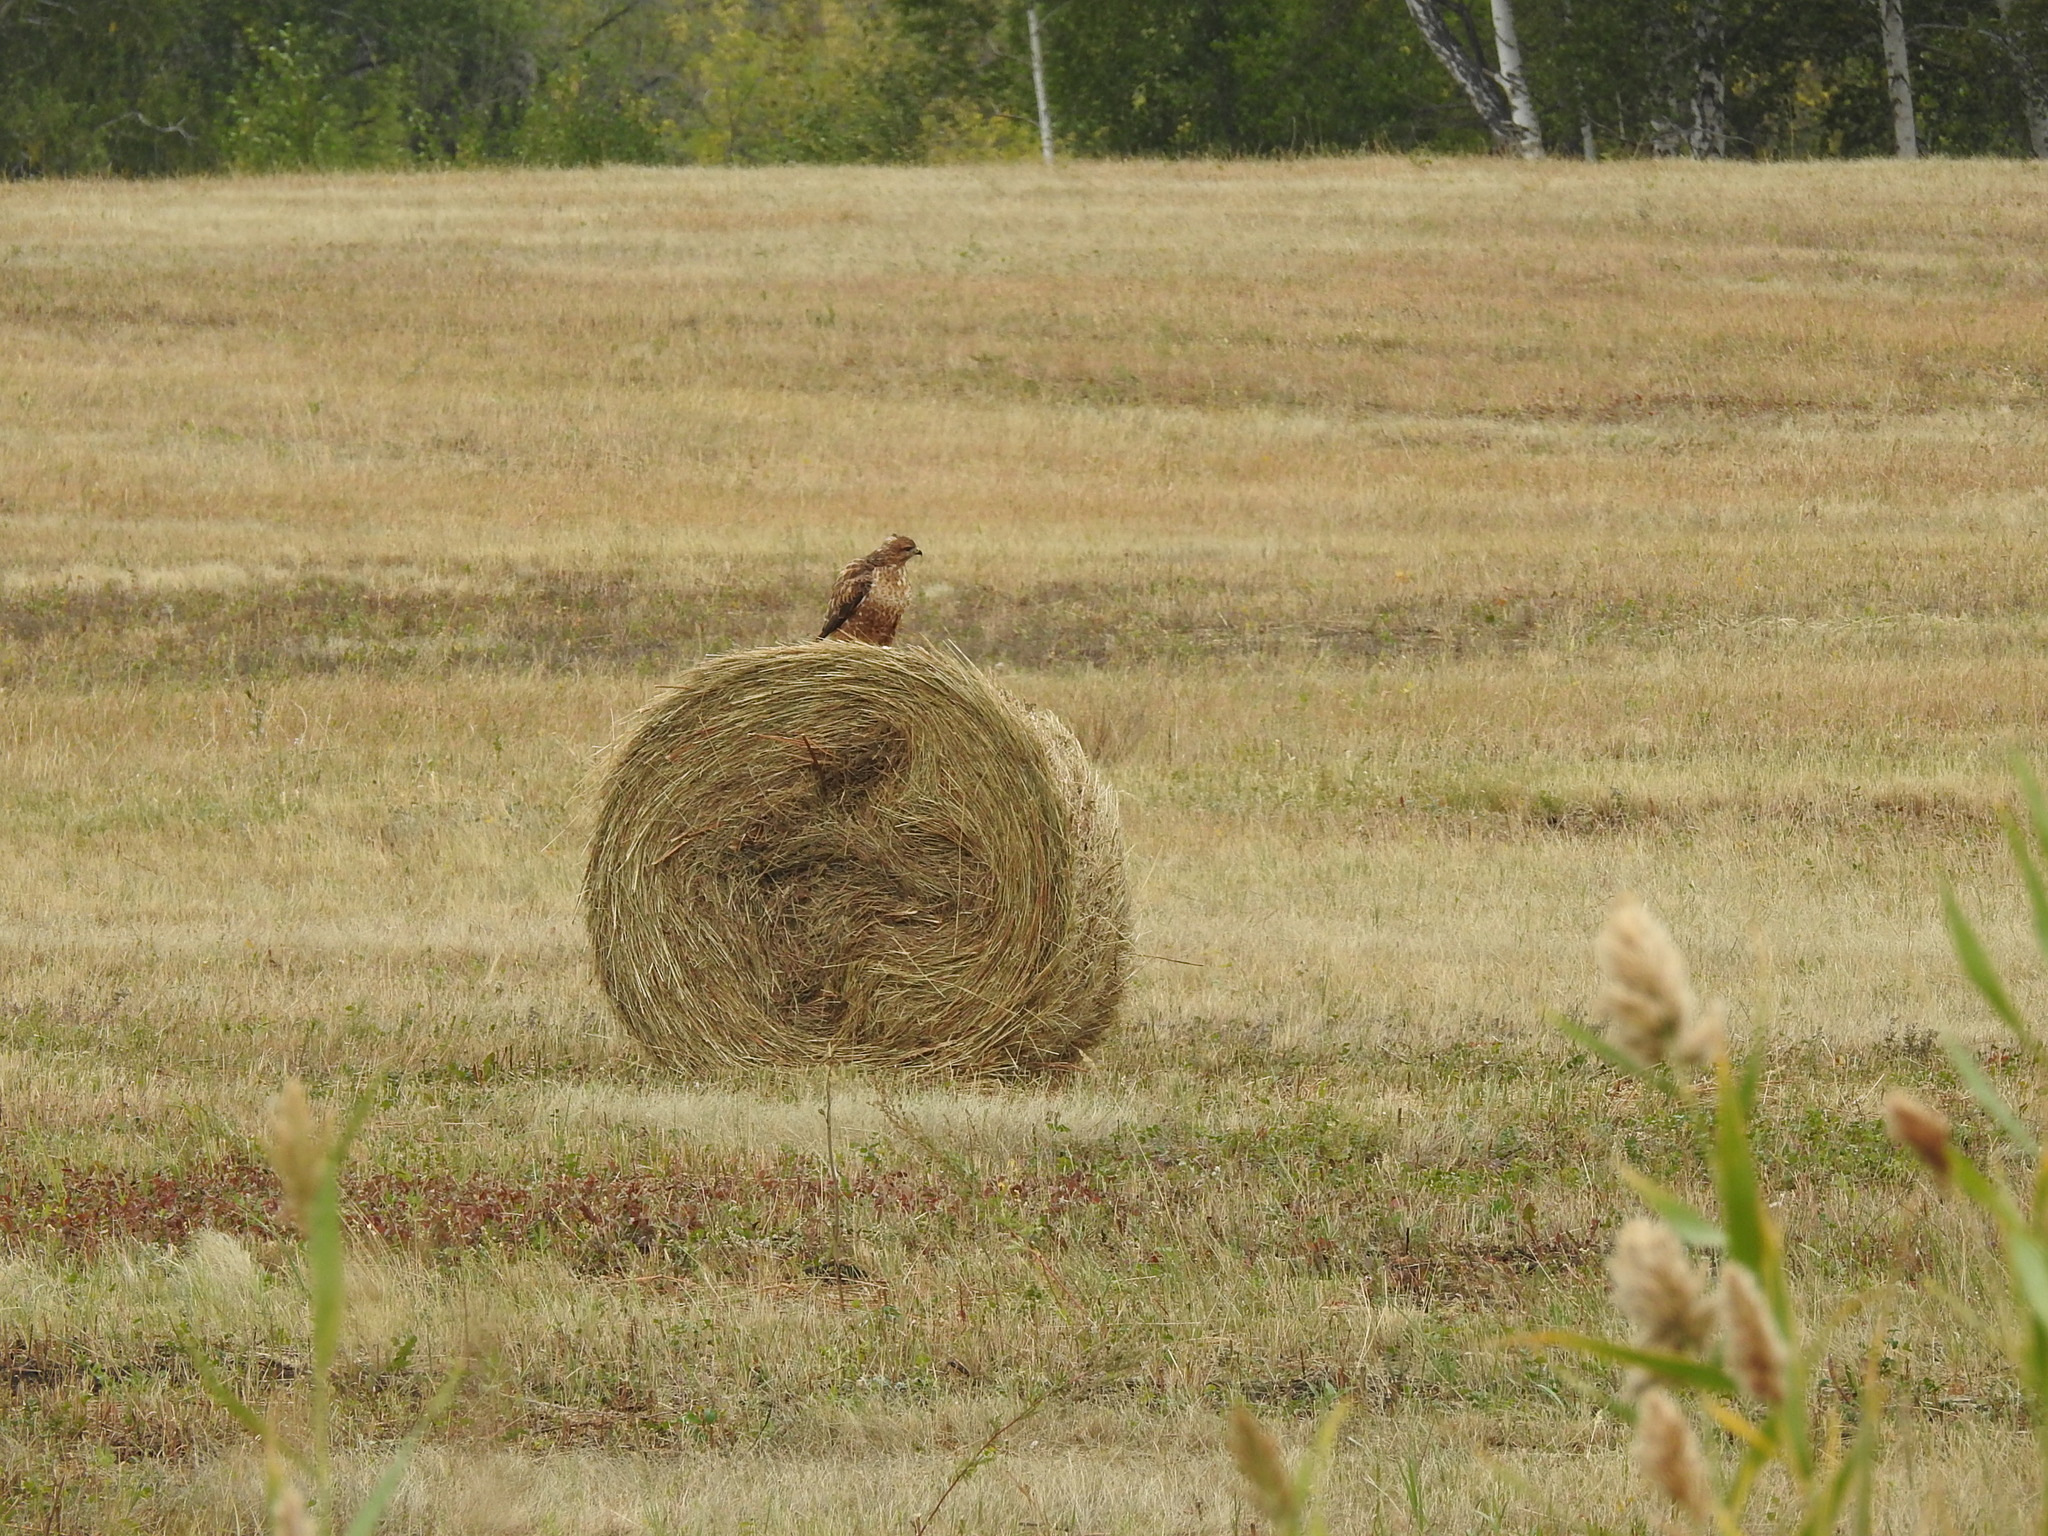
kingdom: Animalia
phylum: Chordata
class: Aves
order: Accipitriformes
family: Accipitridae
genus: Buteo
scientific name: Buteo buteo
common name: Common buzzard
